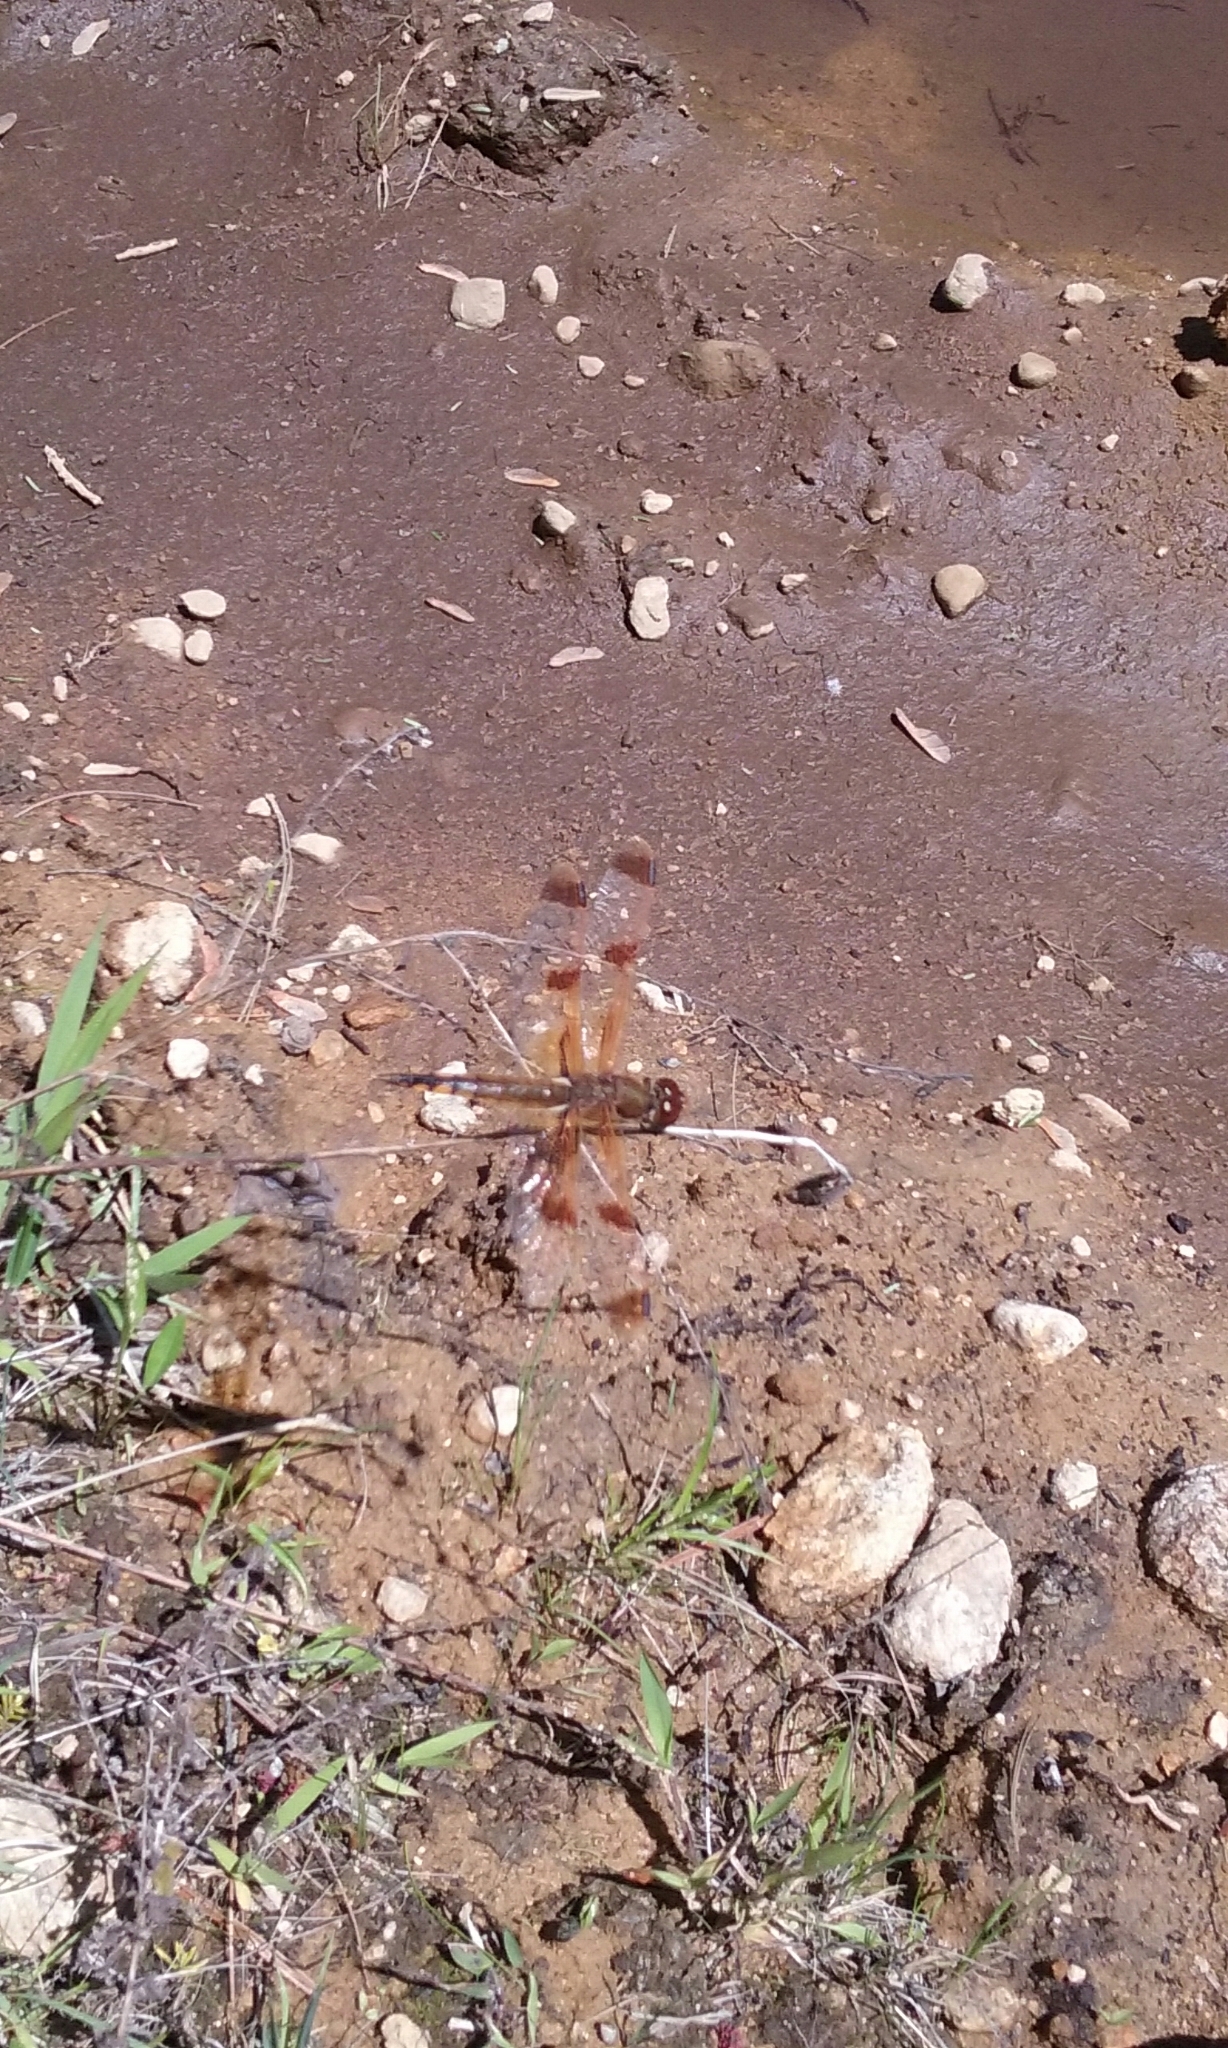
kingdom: Animalia
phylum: Arthropoda
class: Insecta
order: Odonata
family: Libellulidae
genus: Libellula
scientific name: Libellula semifasciata
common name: Painted skimmer
